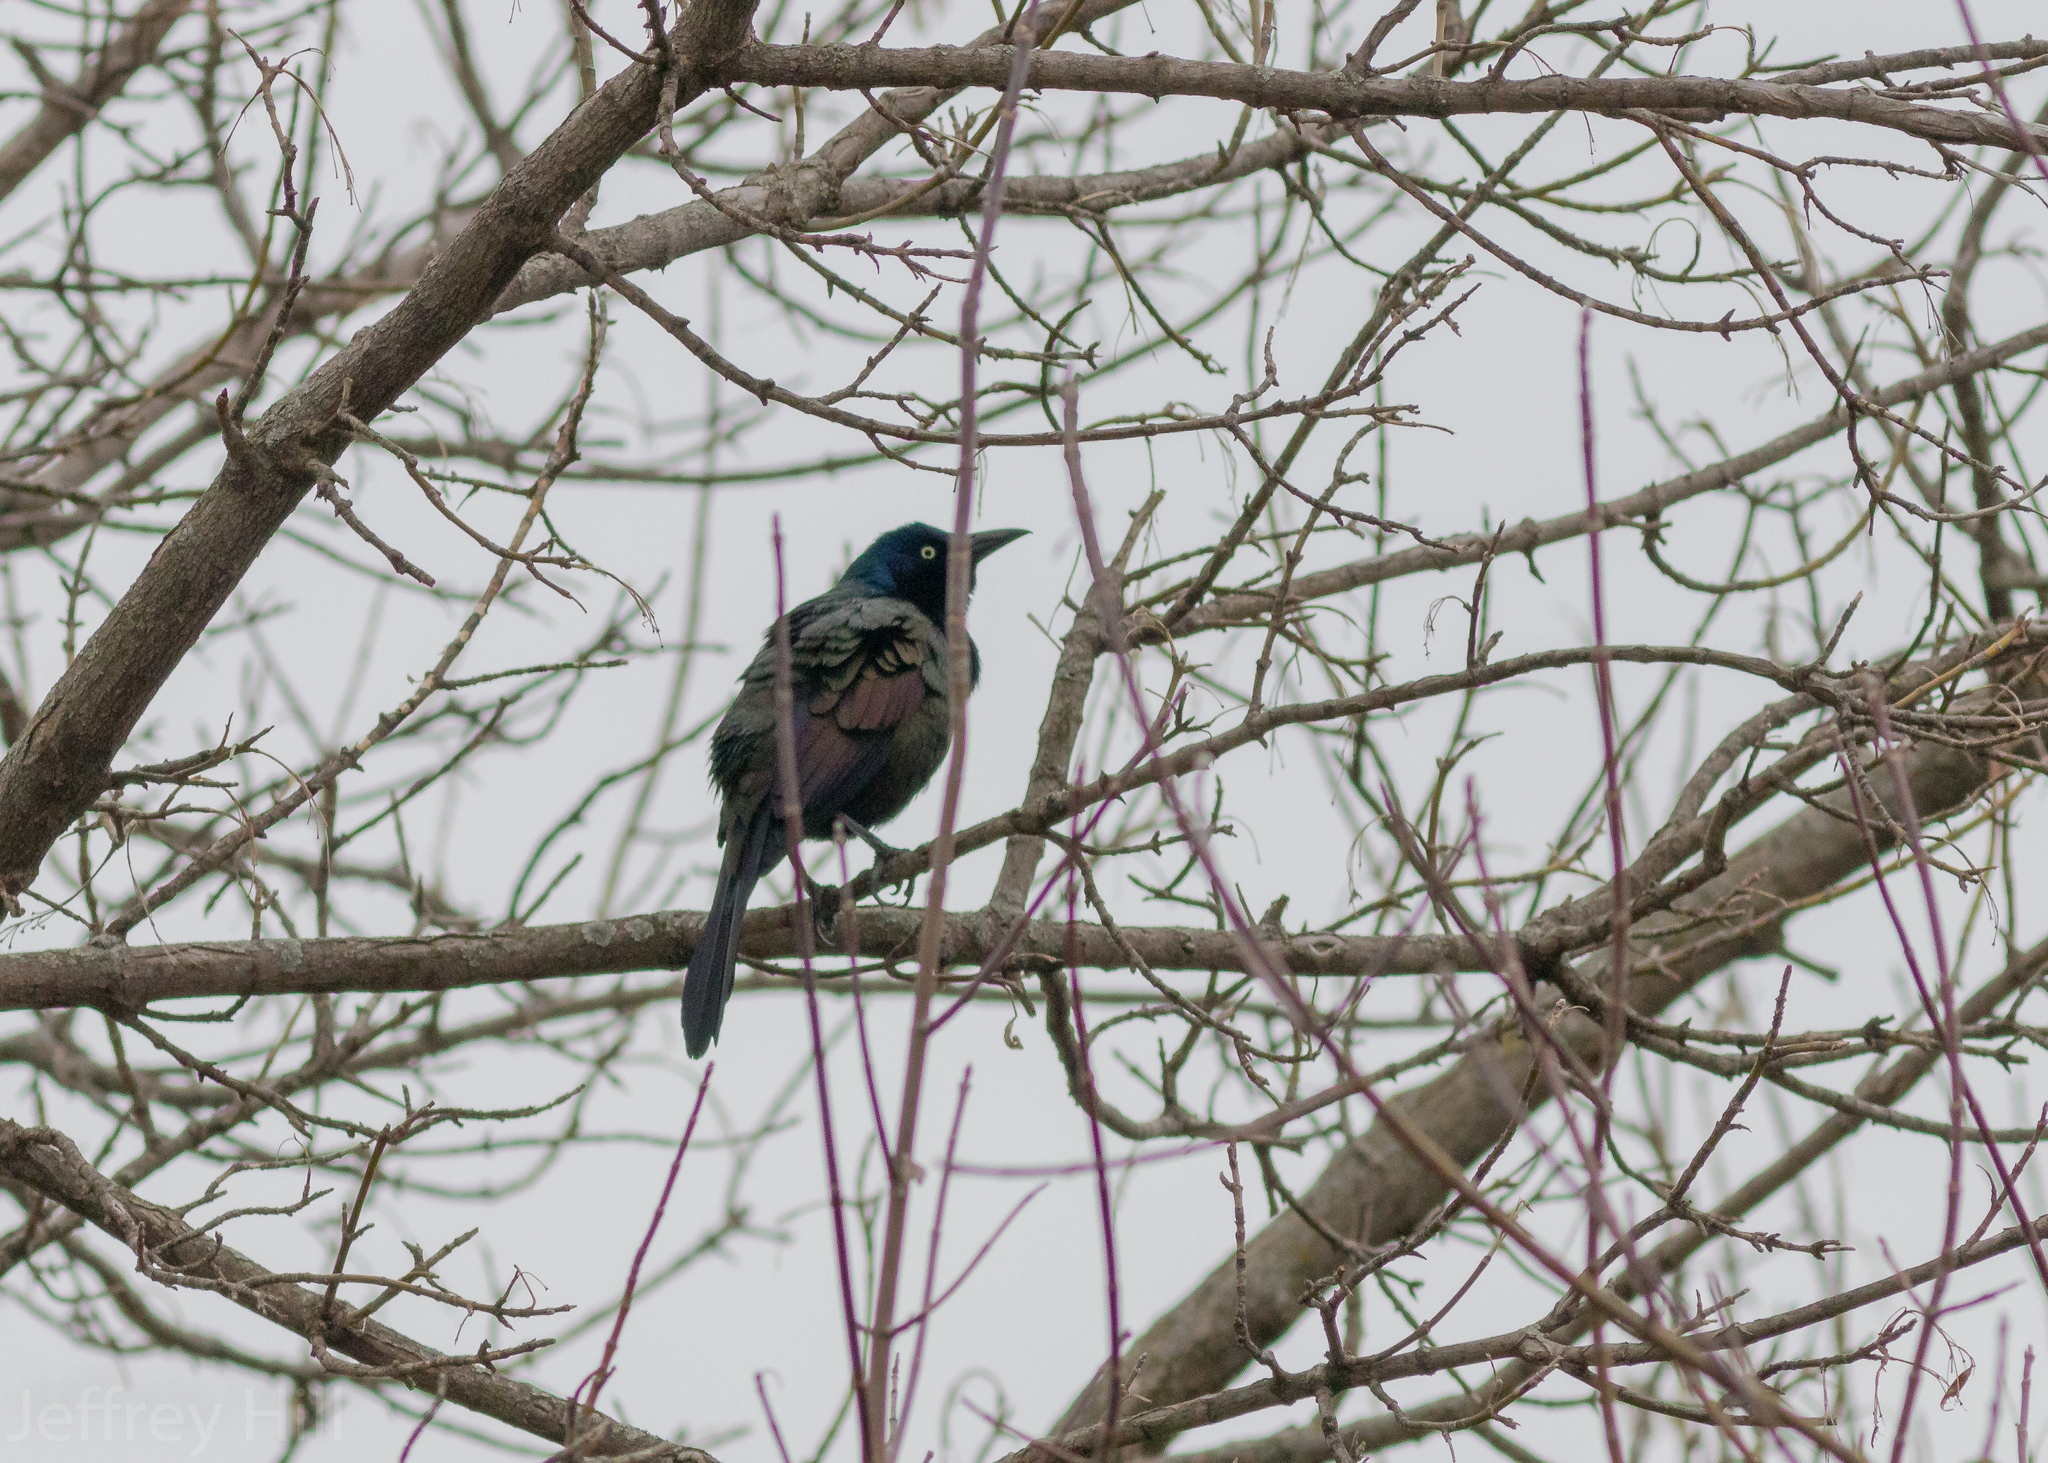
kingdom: Animalia
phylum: Chordata
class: Aves
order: Passeriformes
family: Icteridae
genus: Quiscalus
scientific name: Quiscalus quiscula
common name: Common grackle
